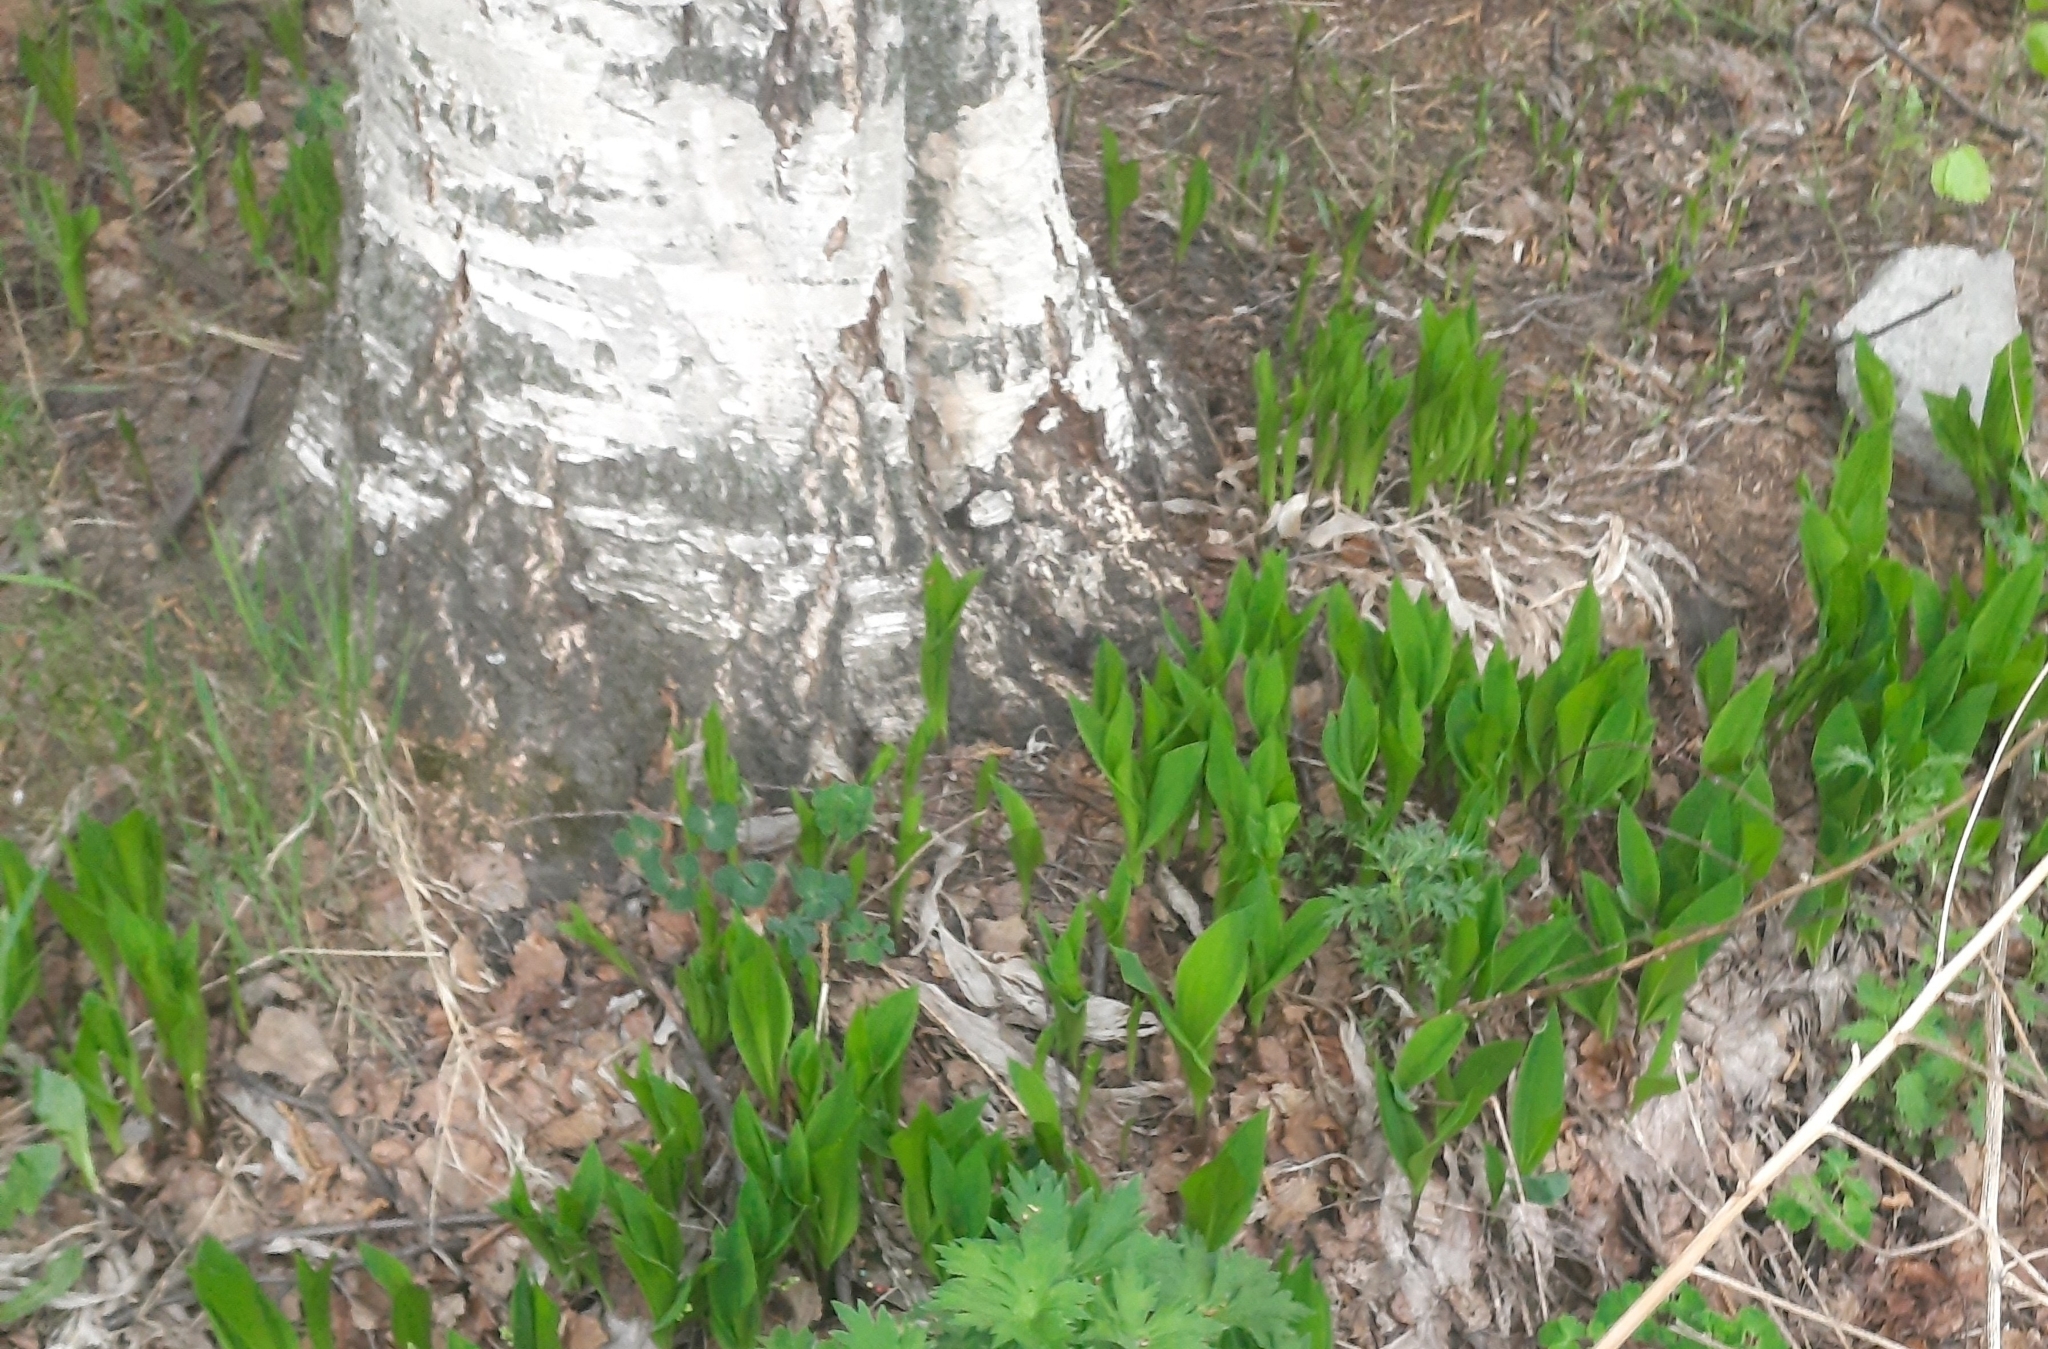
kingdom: Plantae
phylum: Tracheophyta
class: Liliopsida
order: Asparagales
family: Asparagaceae
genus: Convallaria
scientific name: Convallaria majalis
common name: Lily-of-the-valley
